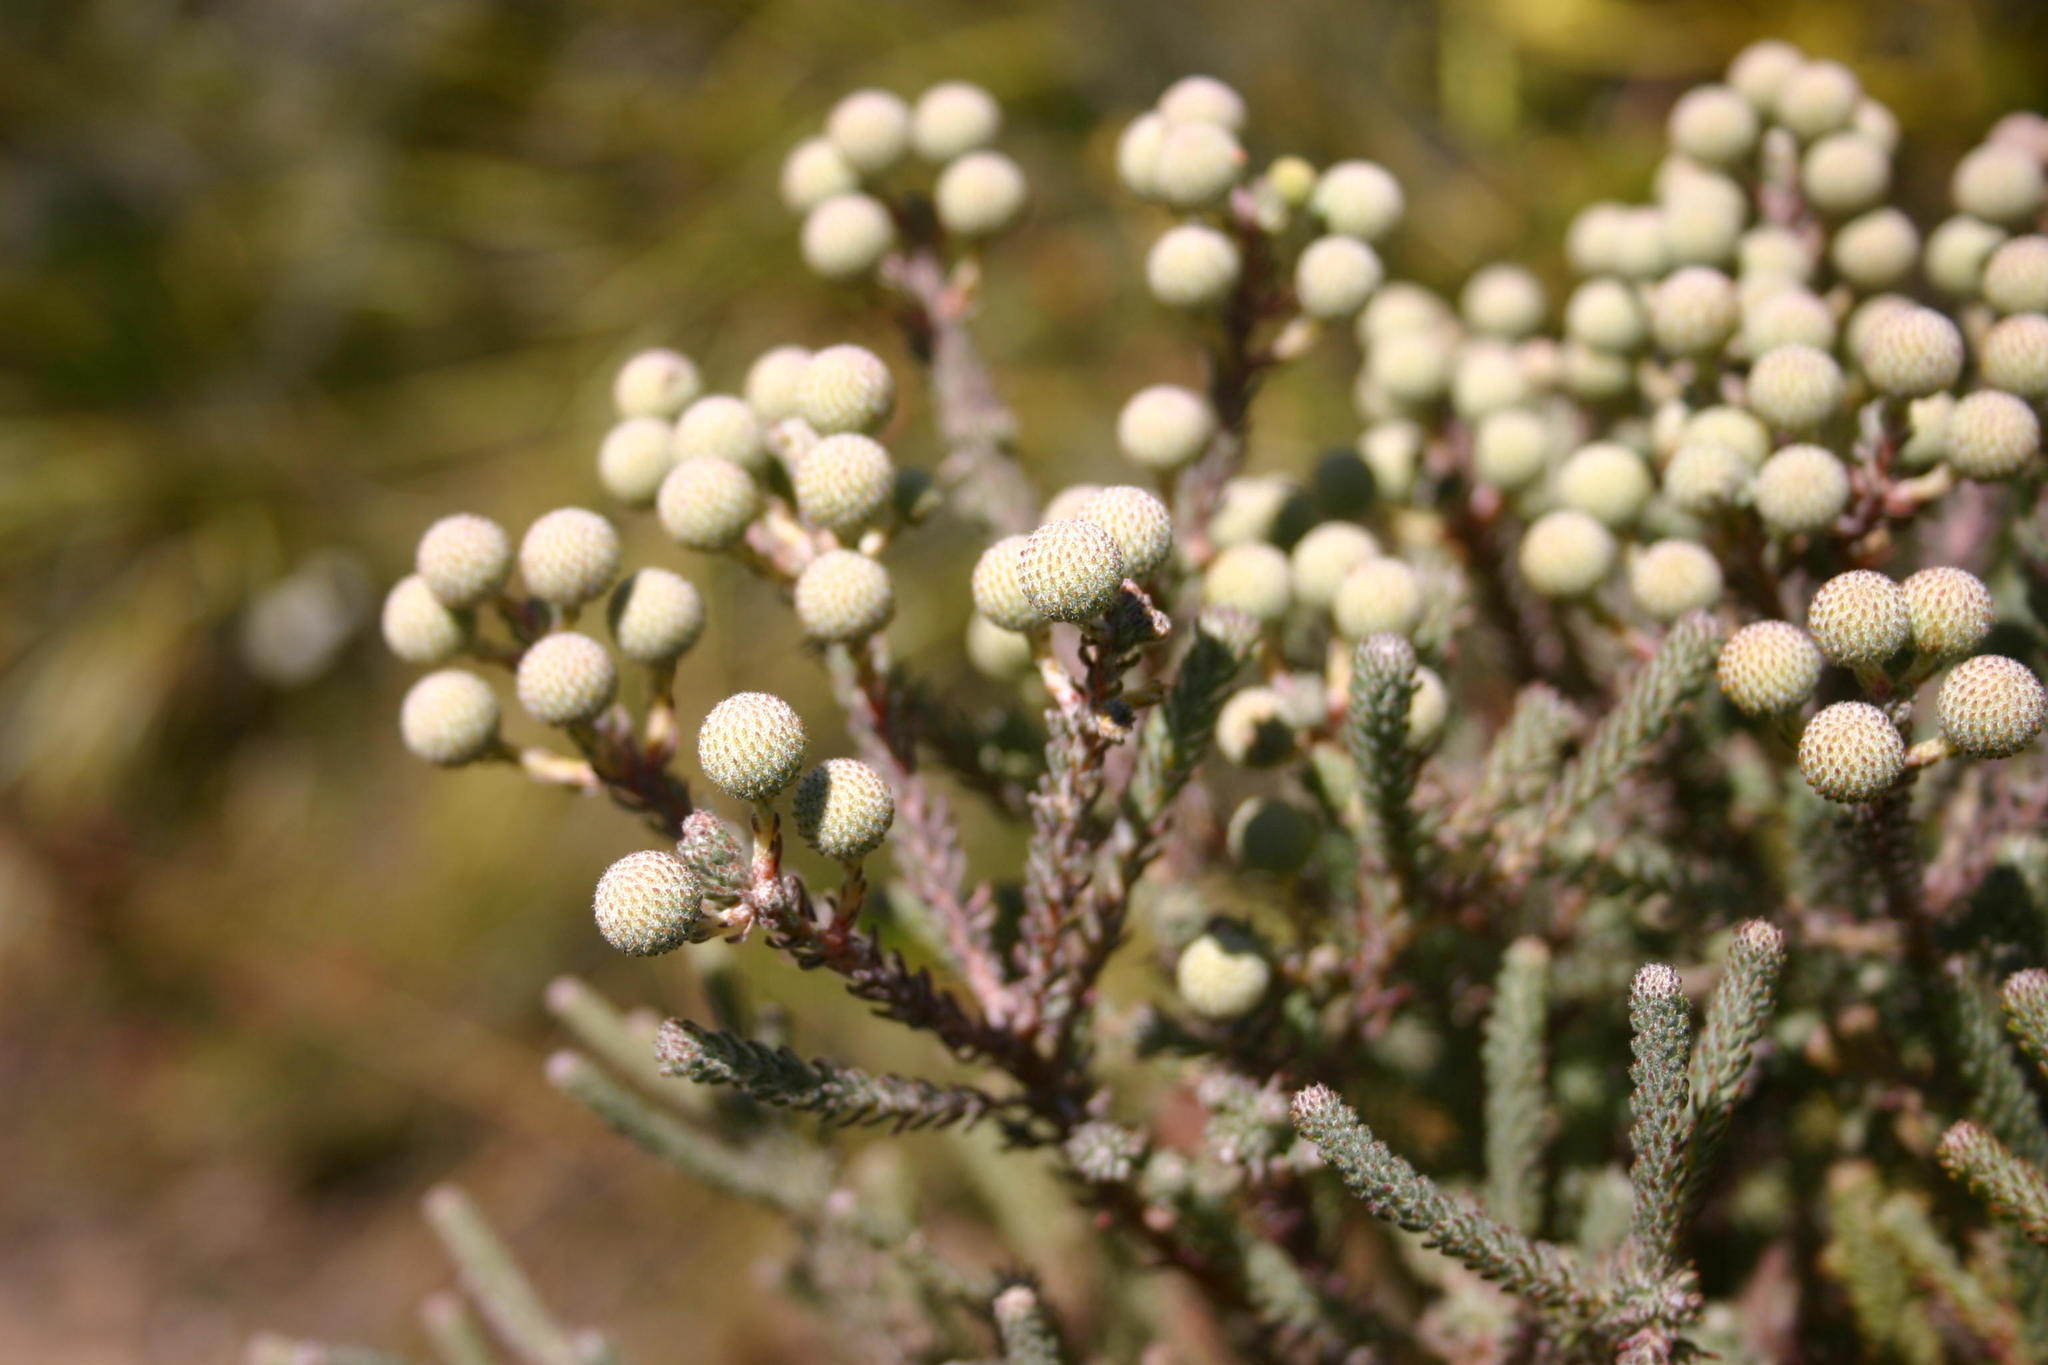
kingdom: Plantae
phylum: Tracheophyta
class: Magnoliopsida
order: Bruniales
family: Bruniaceae
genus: Berzelia
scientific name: Berzelia burchellii
